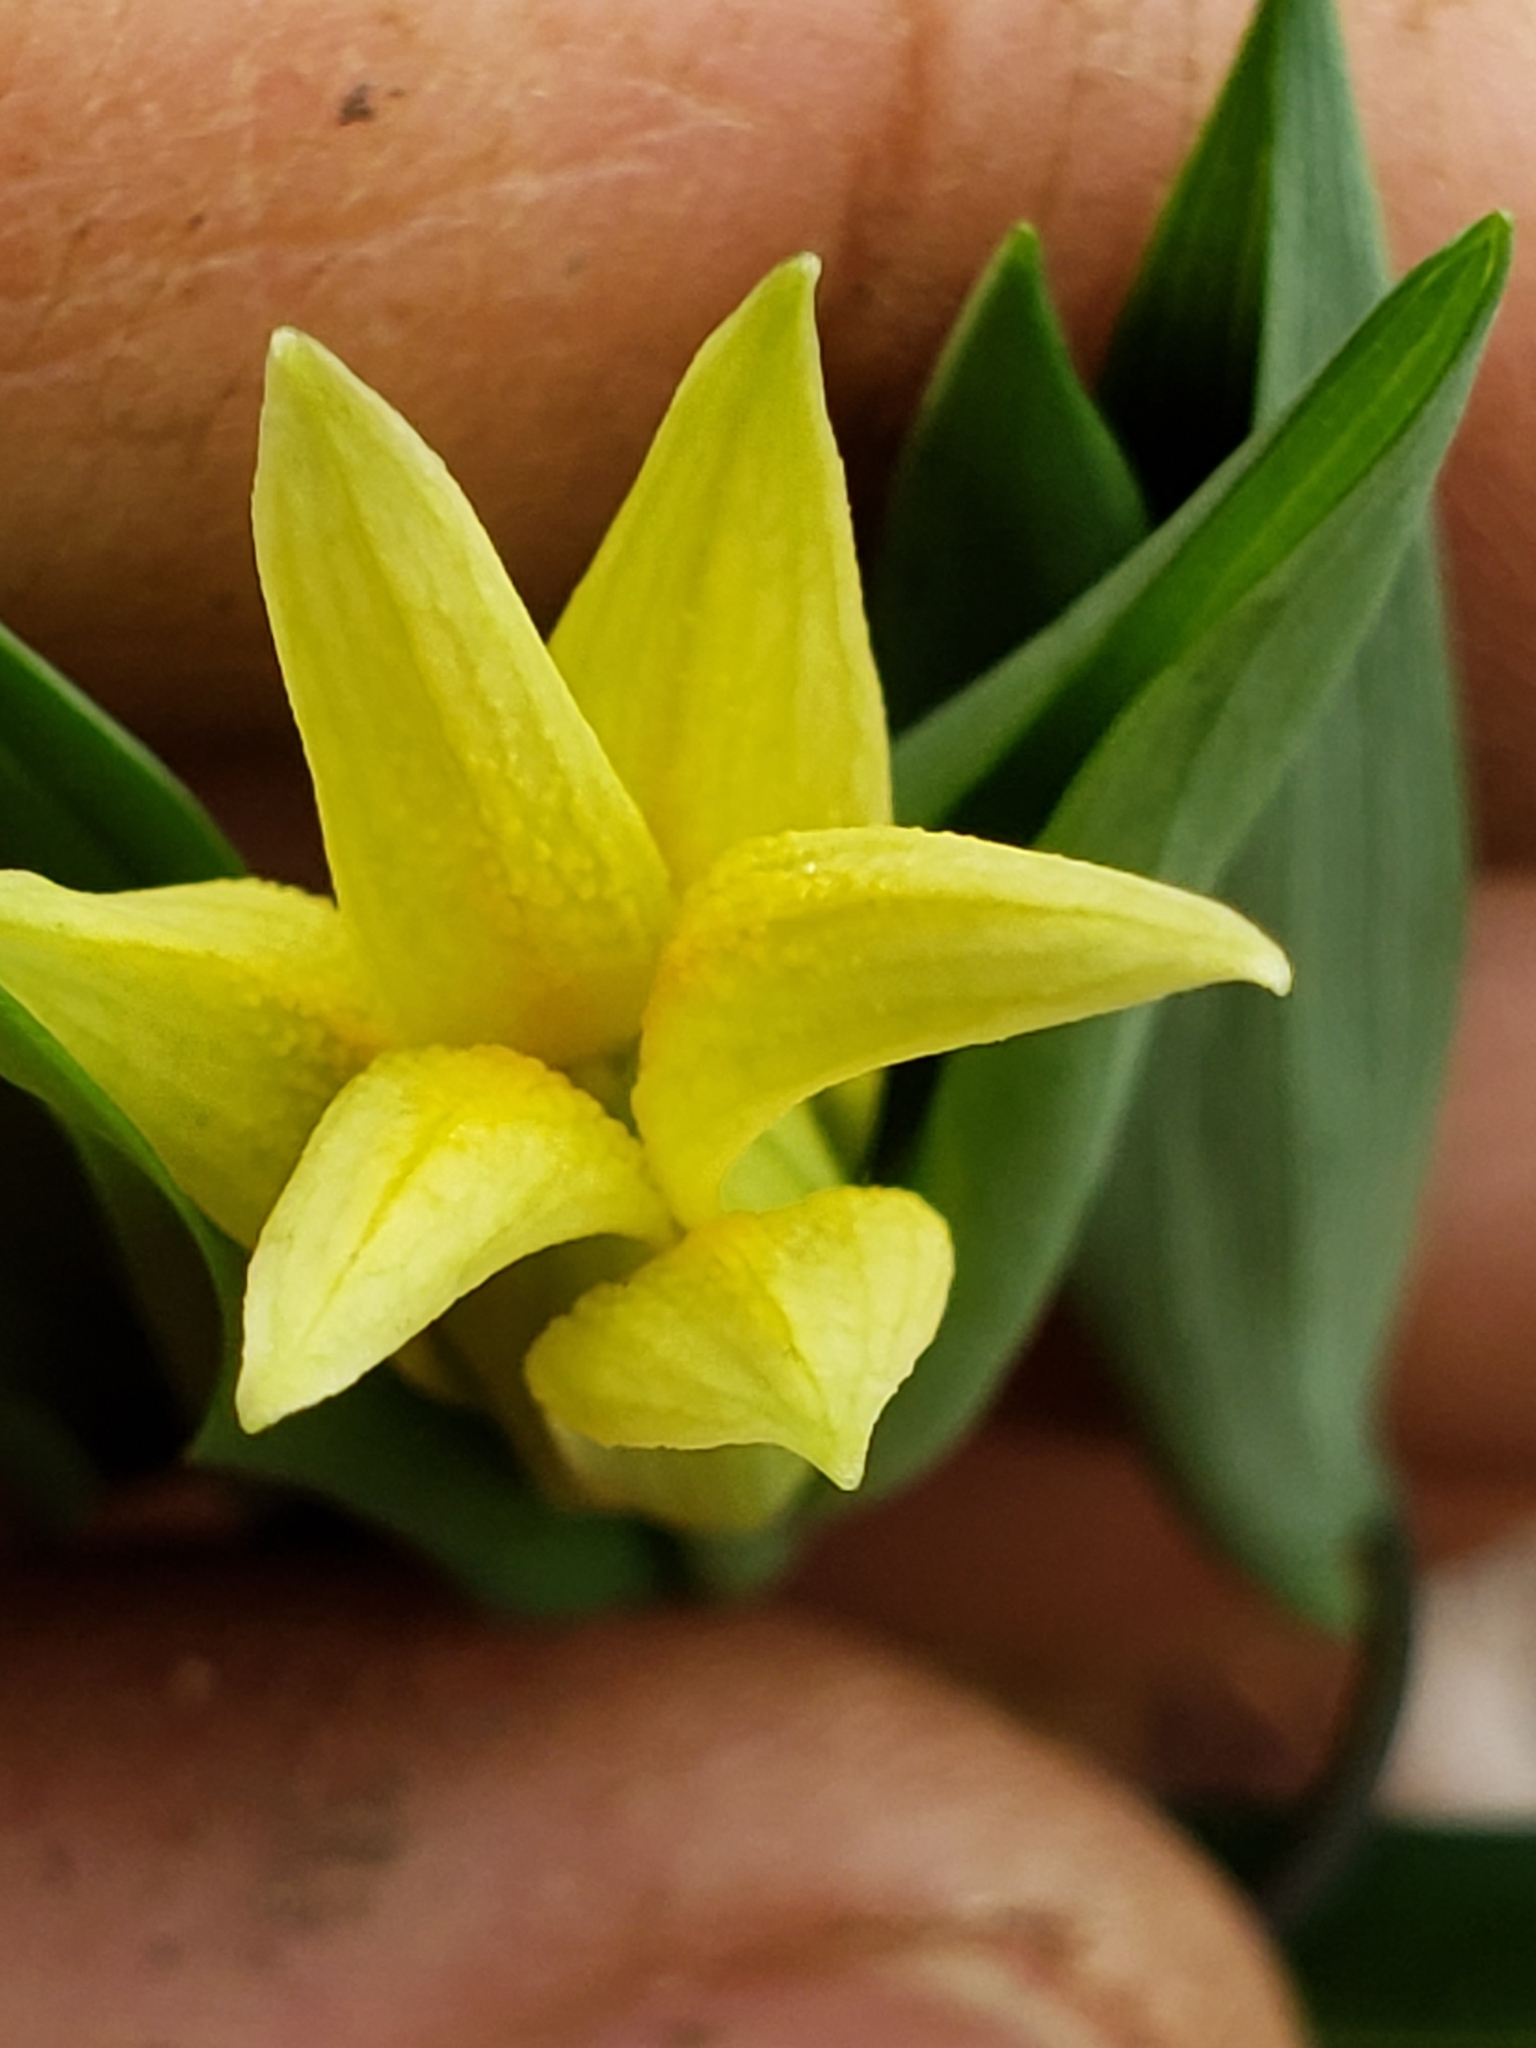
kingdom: Plantae
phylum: Tracheophyta
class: Liliopsida
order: Liliales
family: Colchicaceae
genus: Uvularia
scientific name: Uvularia perfoliata
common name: Perfoliate bellwort
